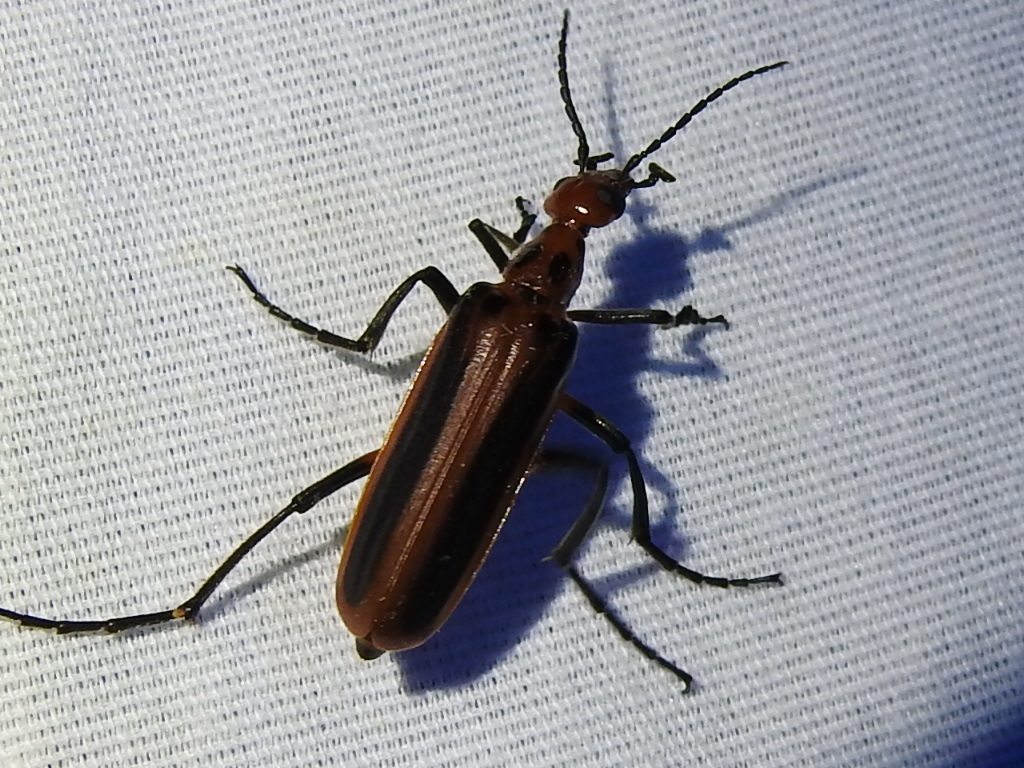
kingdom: Animalia
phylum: Arthropoda
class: Insecta
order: Coleoptera
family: Meloidae
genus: Pyrota
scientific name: Pyrota tenuicostatis
